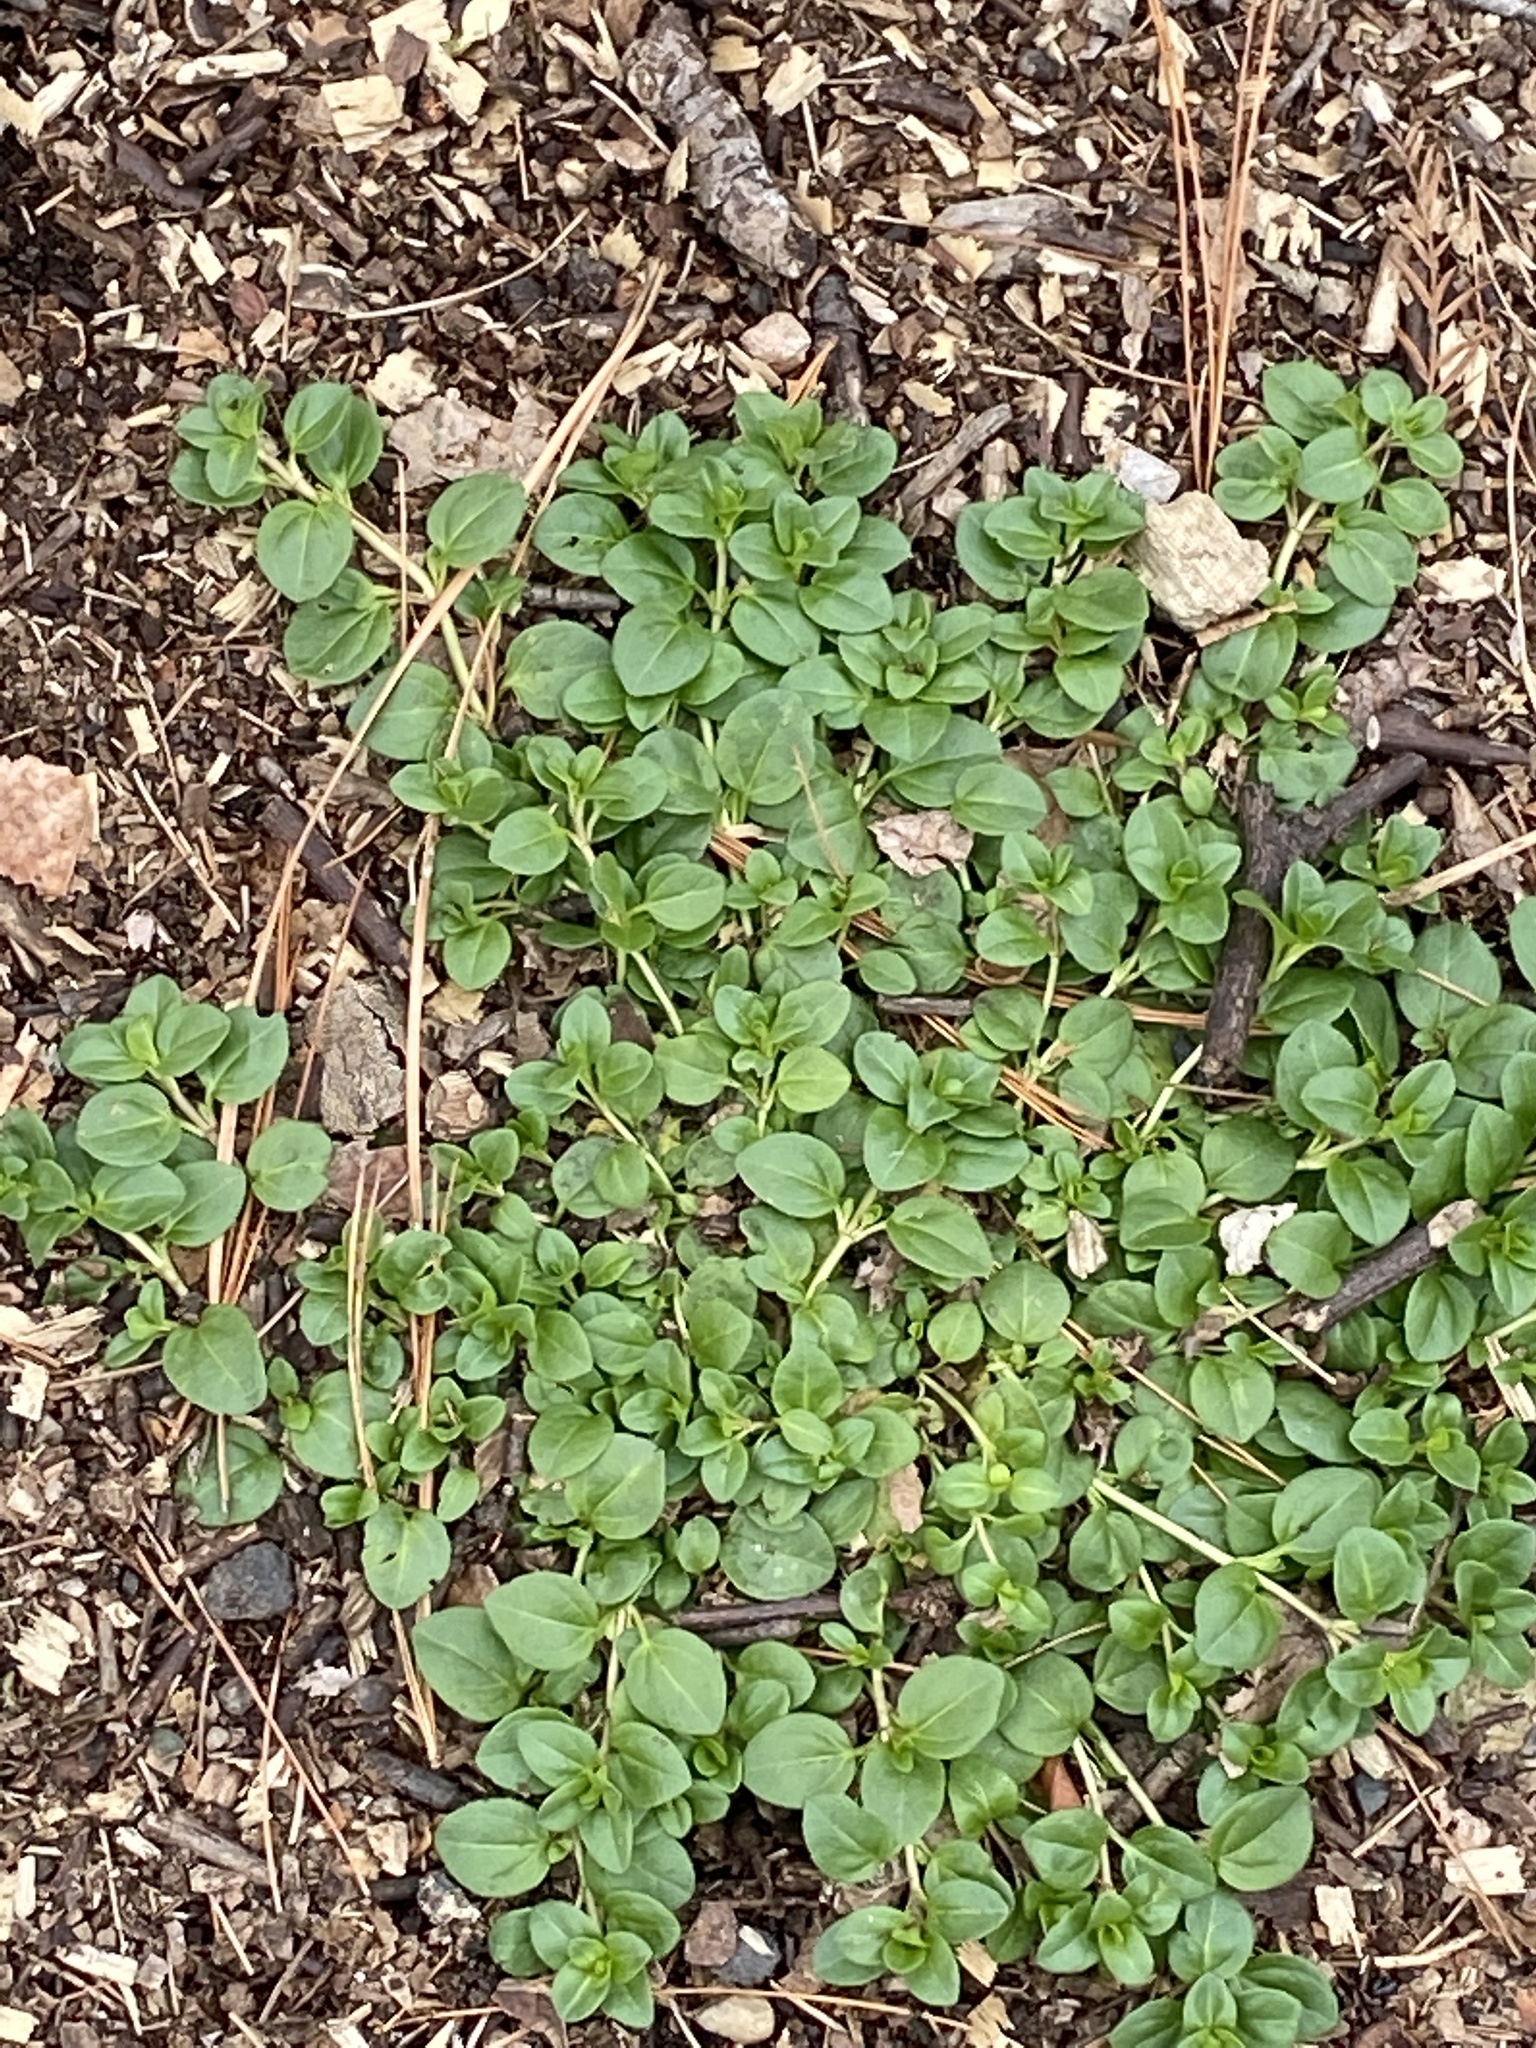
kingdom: Plantae
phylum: Tracheophyta
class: Magnoliopsida
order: Lamiales
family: Plantaginaceae
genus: Veronica
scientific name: Veronica serpyllifolia
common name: Thyme-leaved speedwell
